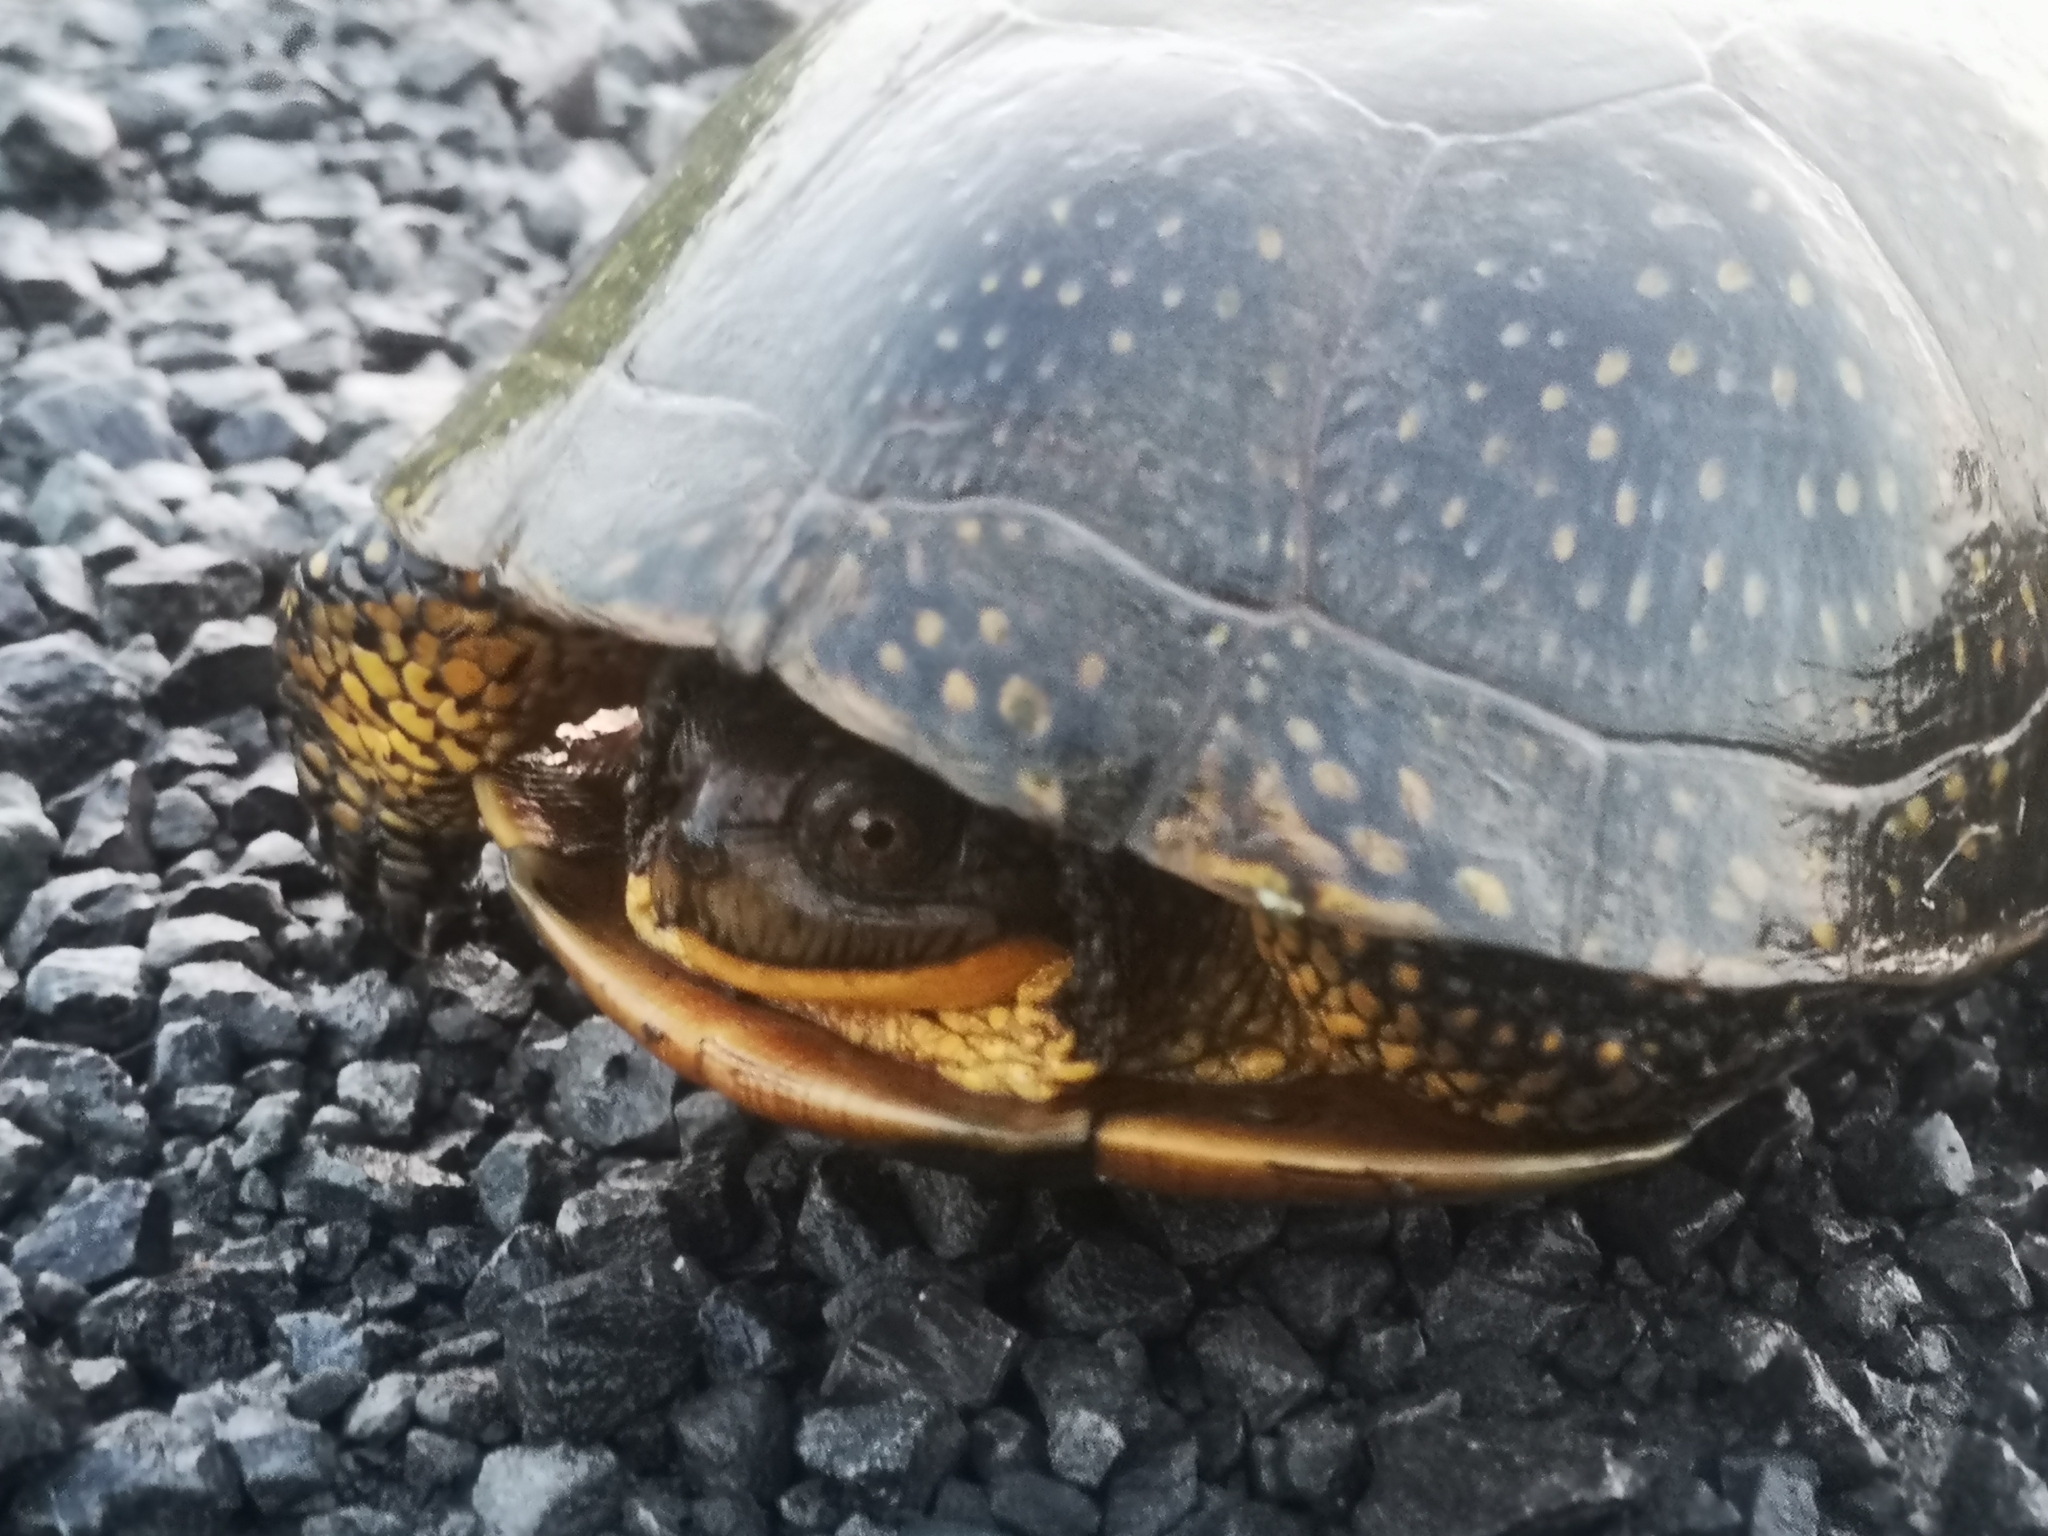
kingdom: Animalia
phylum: Chordata
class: Testudines
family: Emydidae
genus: Emys
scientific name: Emys blandingii
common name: Blanding's turtle
